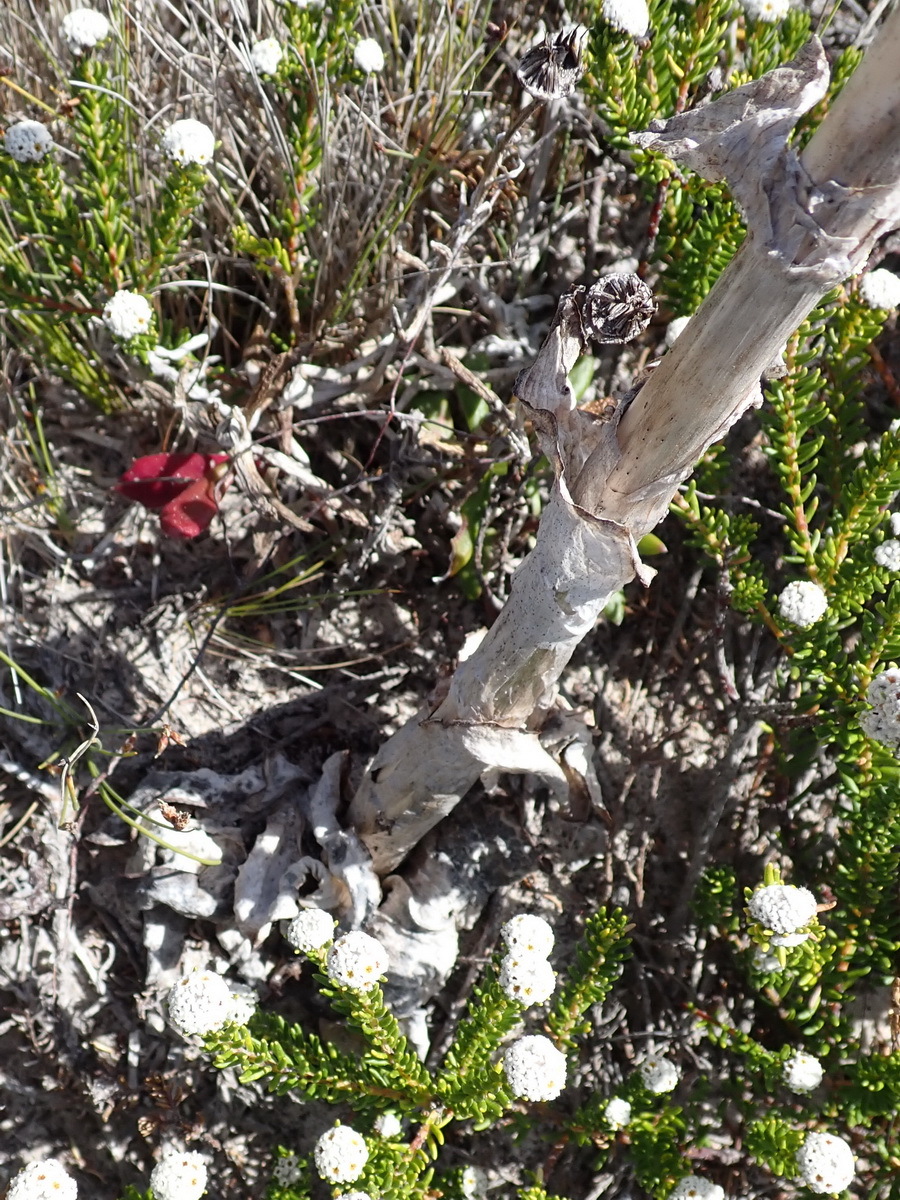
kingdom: Plantae
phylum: Tracheophyta
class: Liliopsida
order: Asparagales
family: Orchidaceae
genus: Satyrium
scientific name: Satyrium carneum
